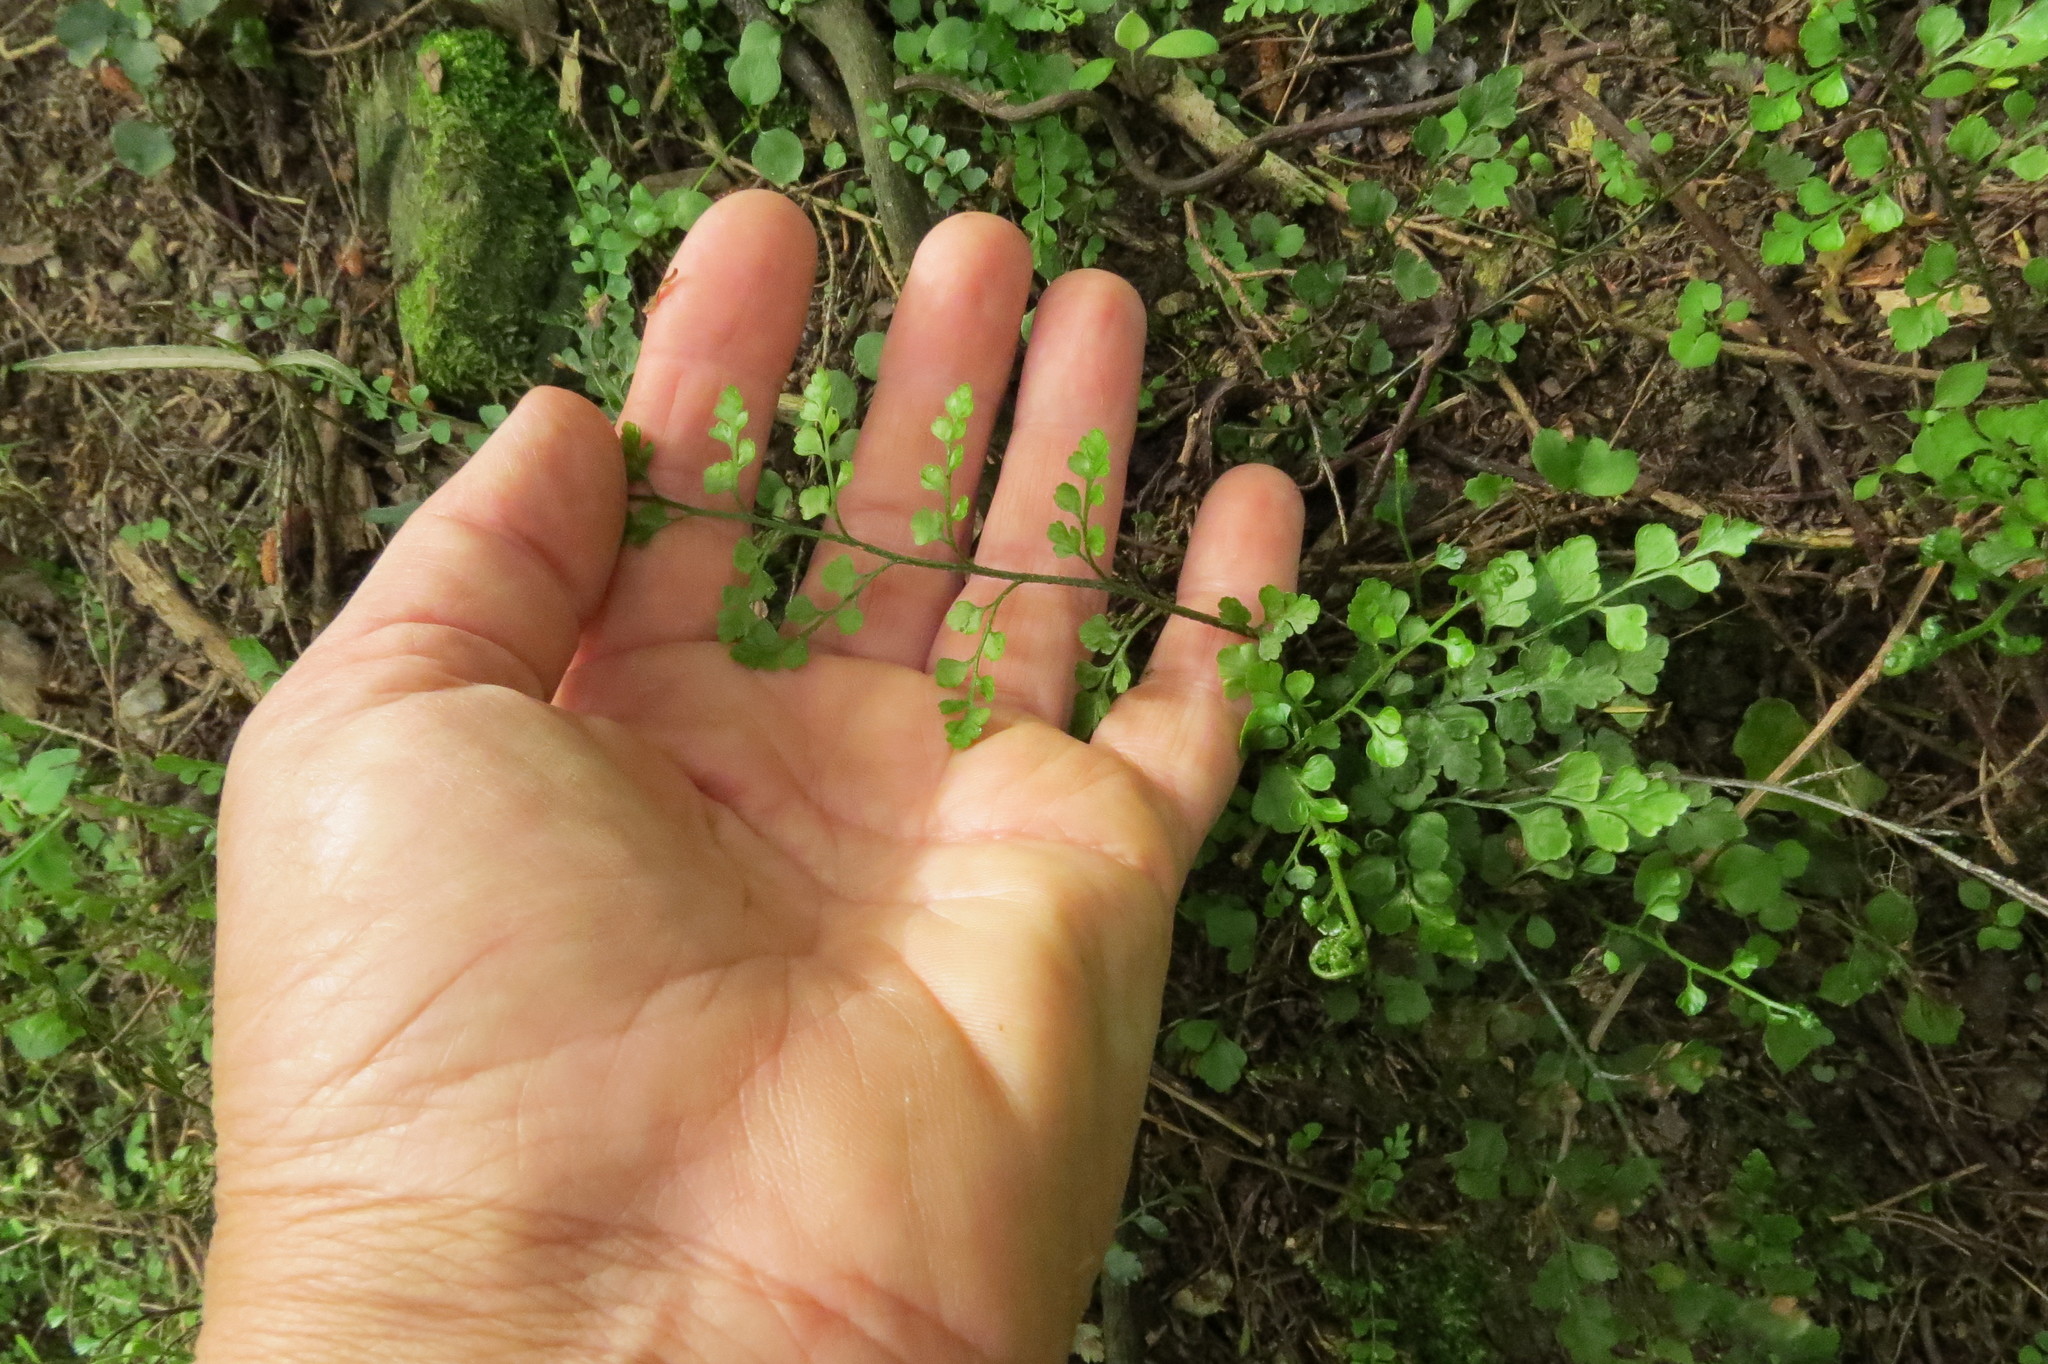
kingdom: Plantae
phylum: Tracheophyta
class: Polypodiopsida
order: Polypodiales
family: Aspleniaceae
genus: Asplenium
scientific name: Asplenium hookerianum
